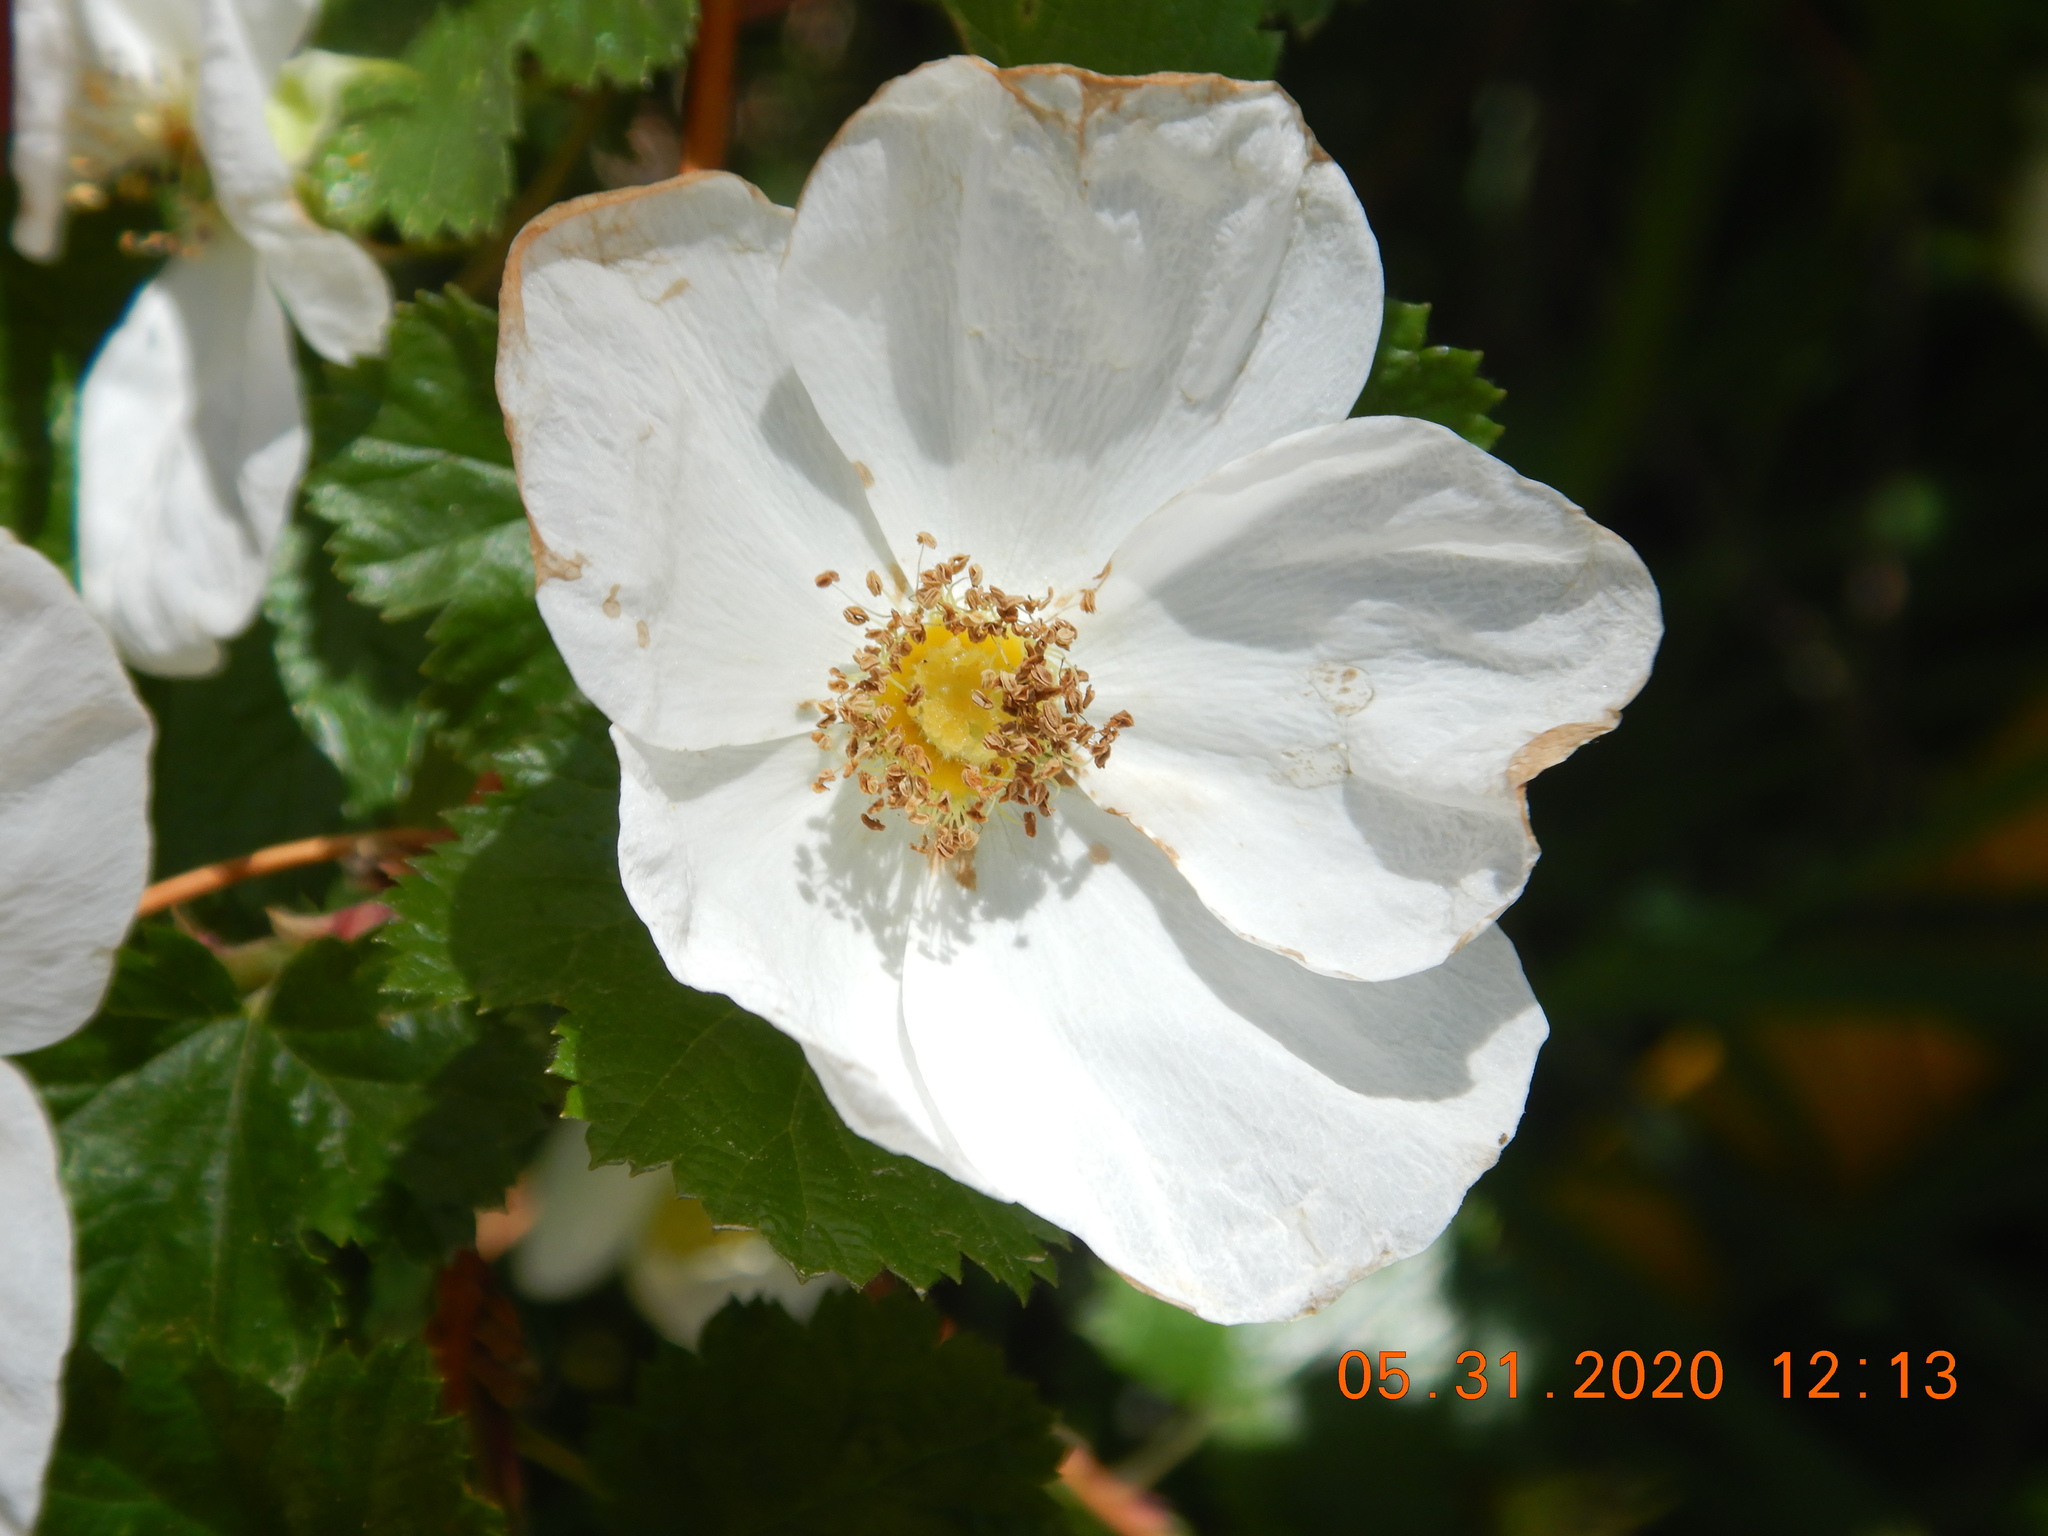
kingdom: Plantae
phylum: Tracheophyta
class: Magnoliopsida
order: Rosales
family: Rosaceae
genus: Rubus
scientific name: Rubus deliciosus
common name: Rocky mountain raspberry
